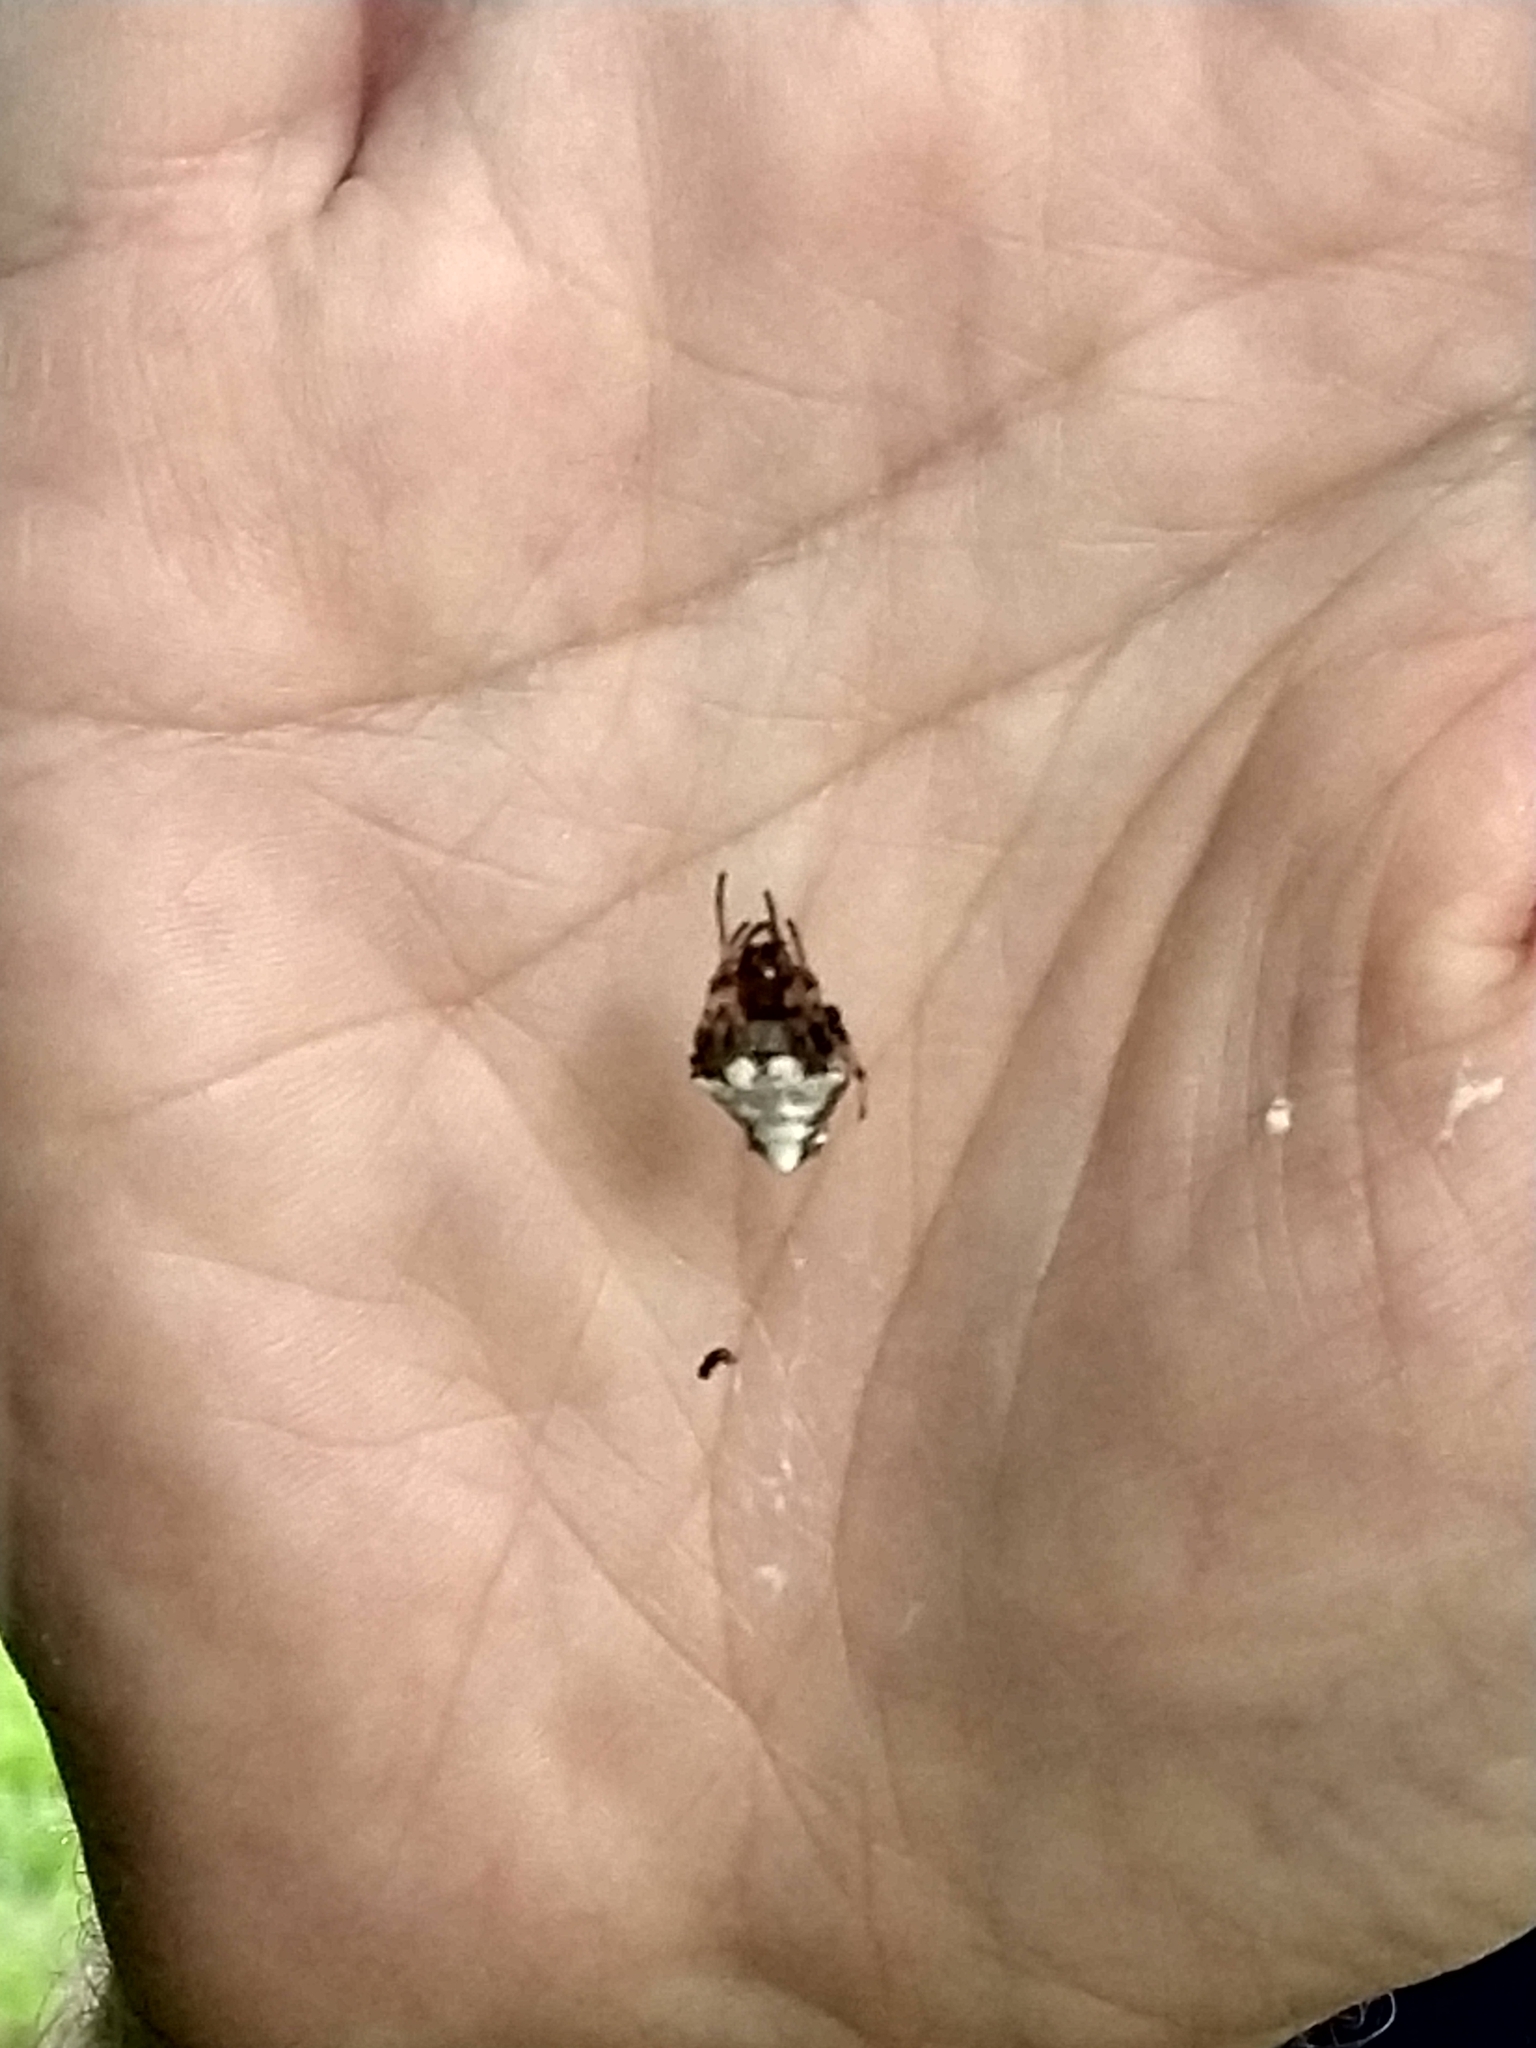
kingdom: Animalia
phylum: Arthropoda
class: Arachnida
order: Araneae
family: Araneidae
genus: Verrucosa
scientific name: Verrucosa arenata
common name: Orb weavers
